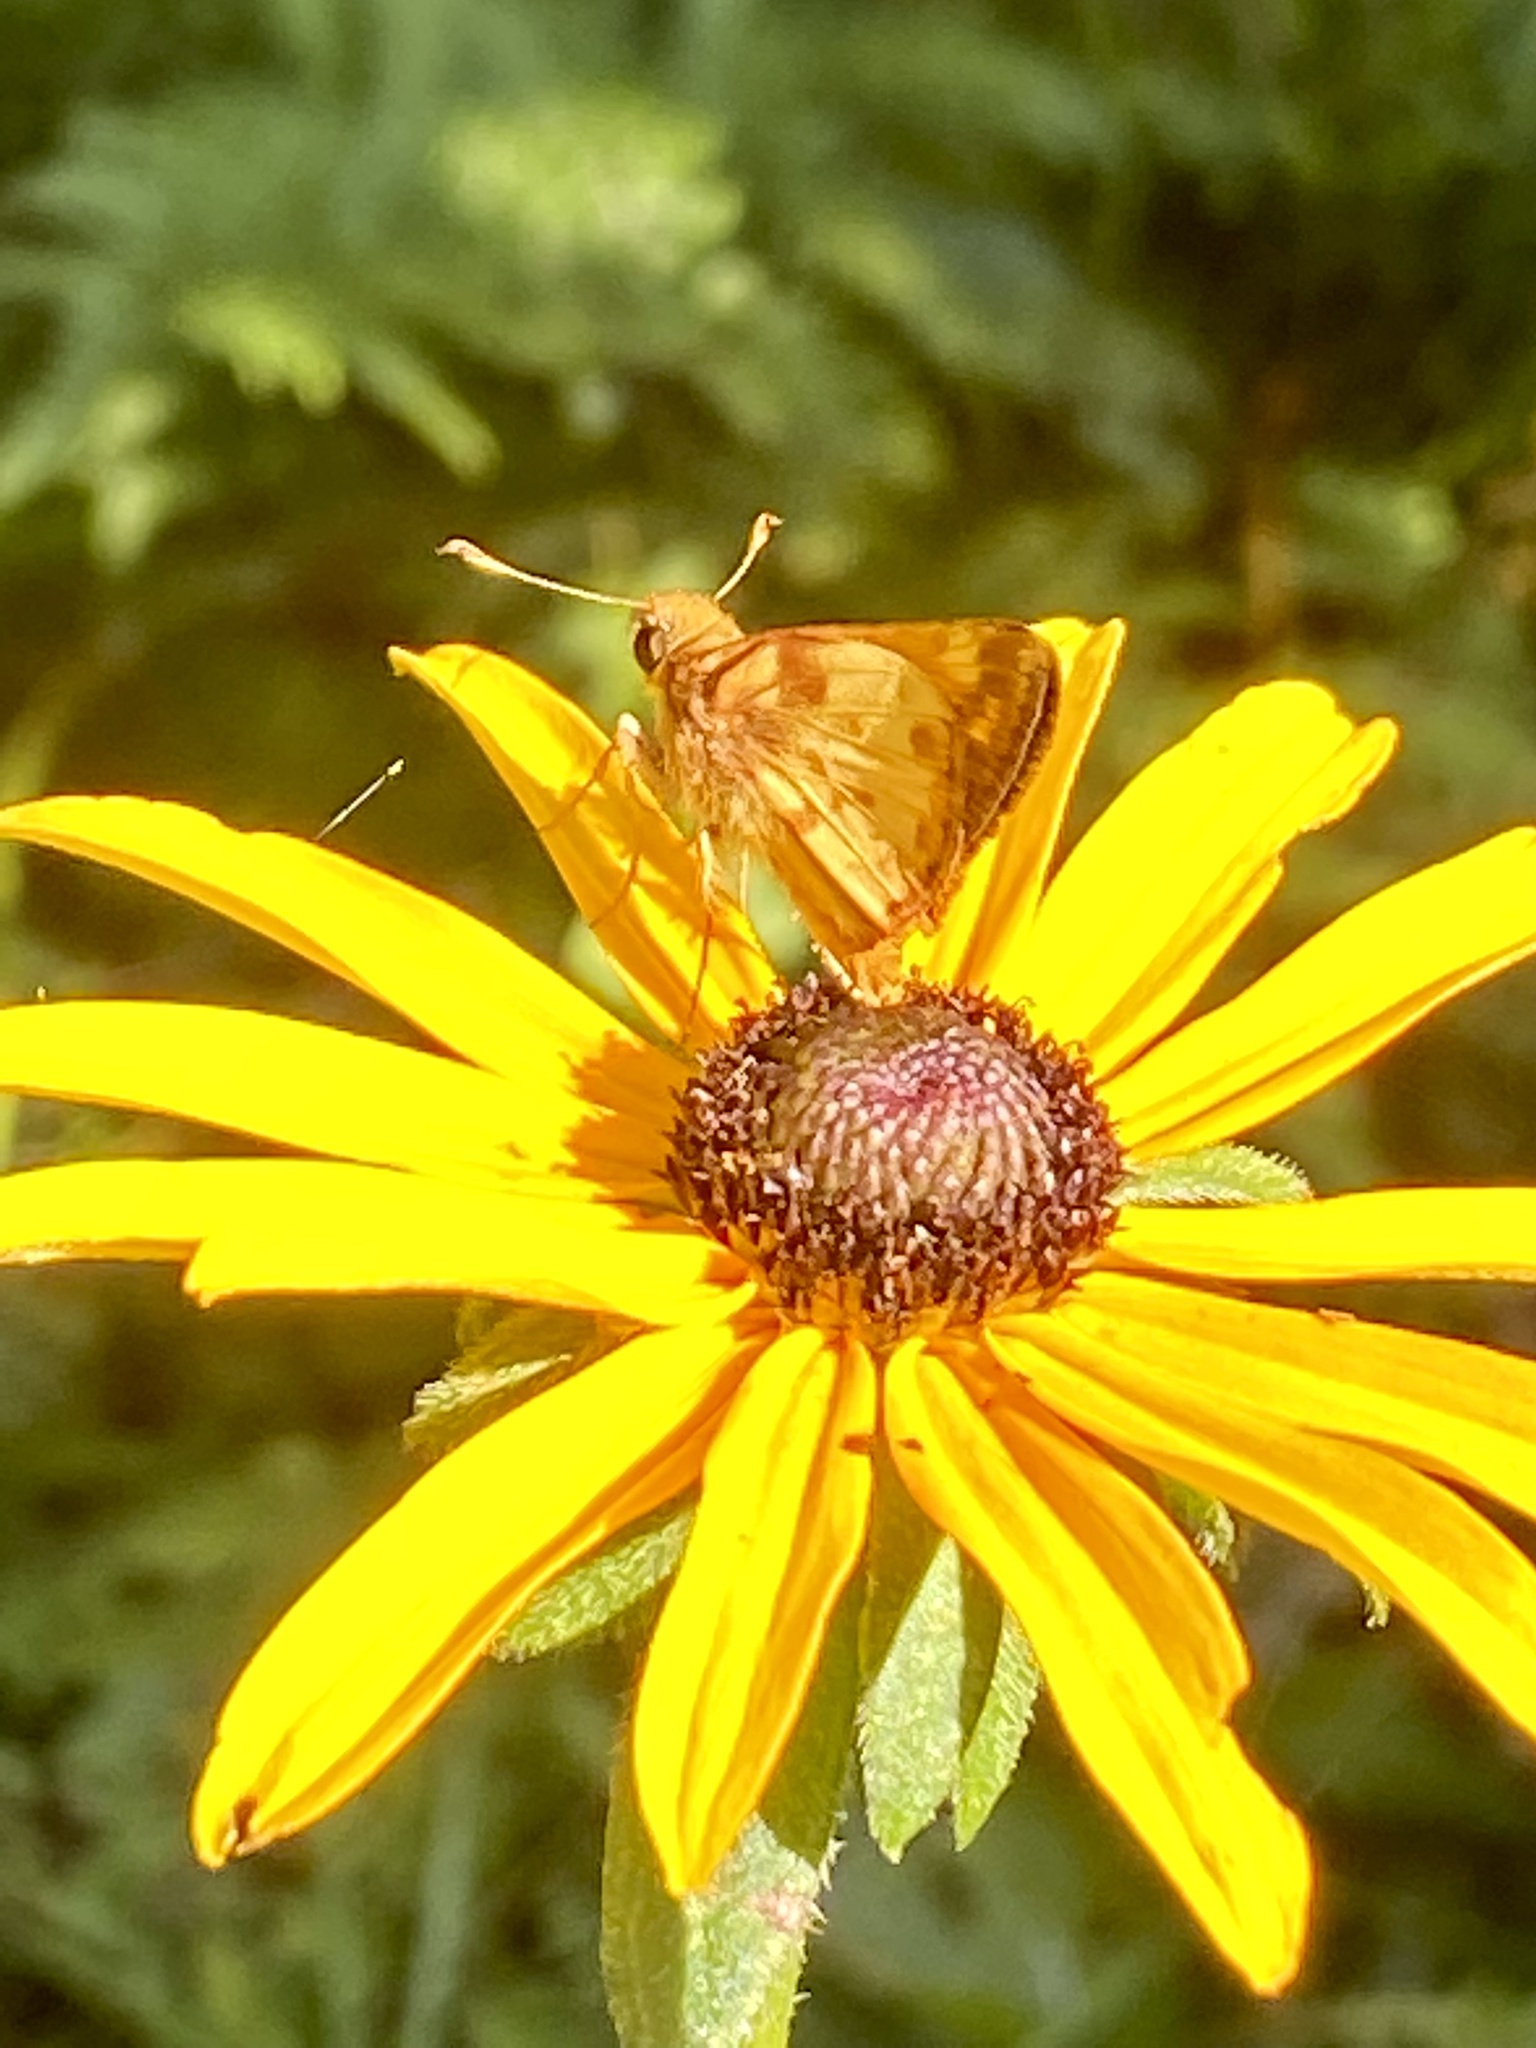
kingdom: Animalia
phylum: Arthropoda
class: Insecta
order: Lepidoptera
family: Hesperiidae
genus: Lon
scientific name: Lon zabulon
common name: Zabulon skipper
